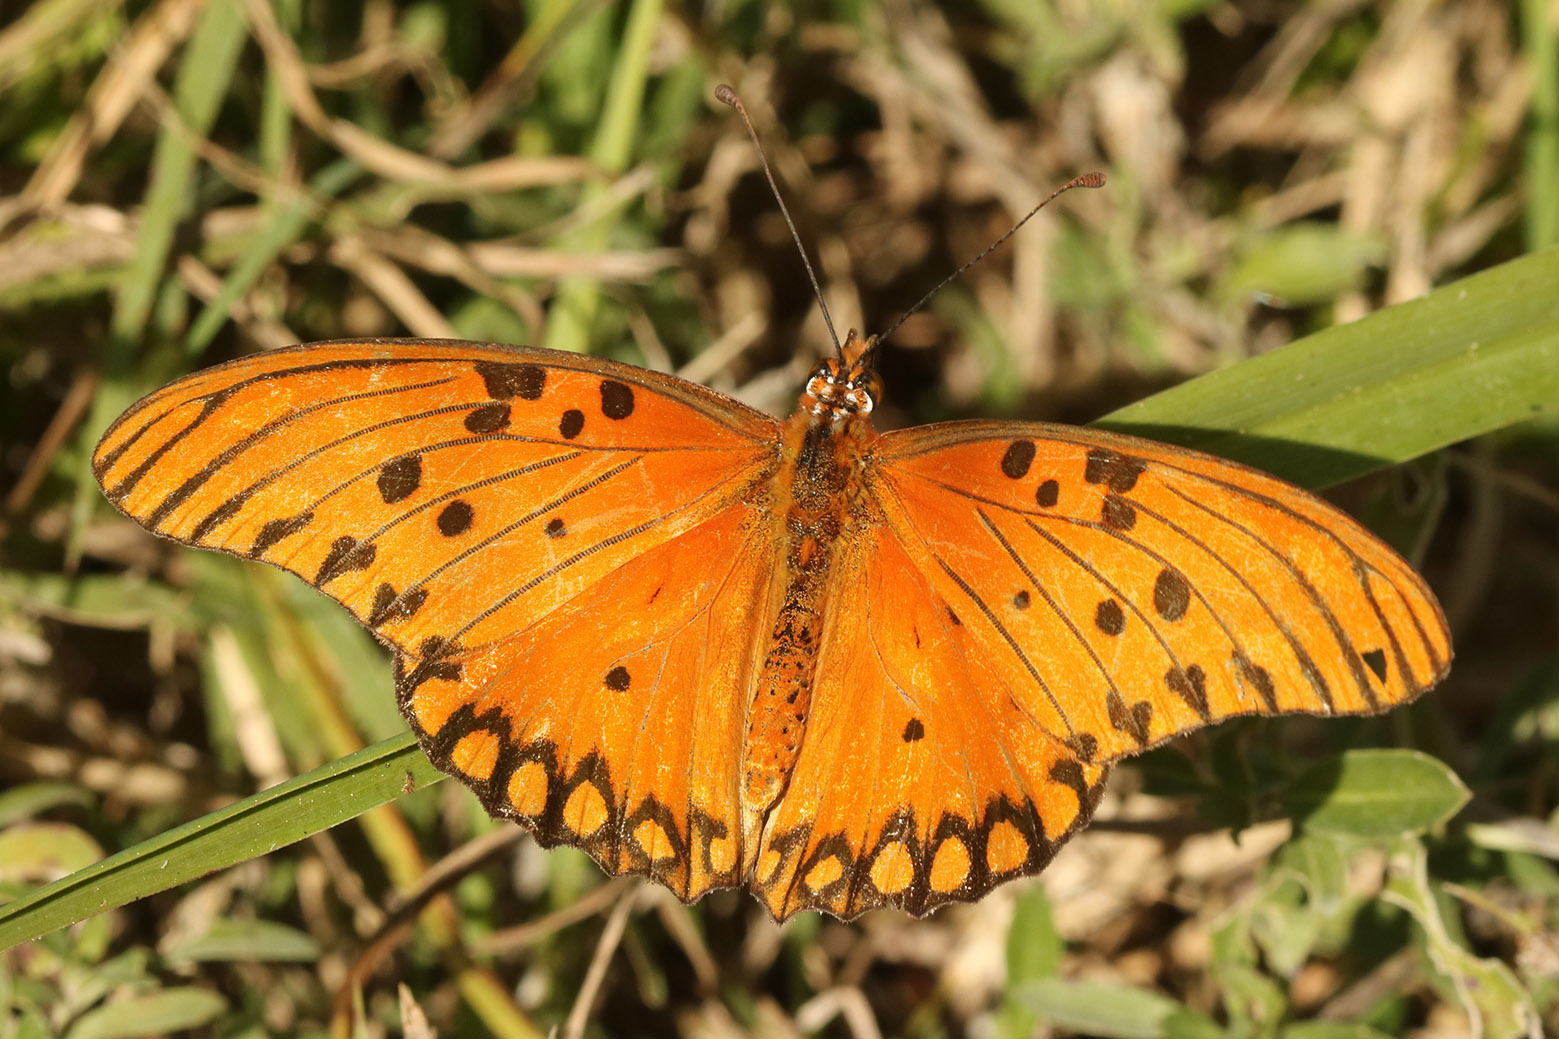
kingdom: Animalia
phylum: Arthropoda
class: Insecta
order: Lepidoptera
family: Nymphalidae
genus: Dione
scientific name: Dione vanillae
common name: Gulf fritillary
